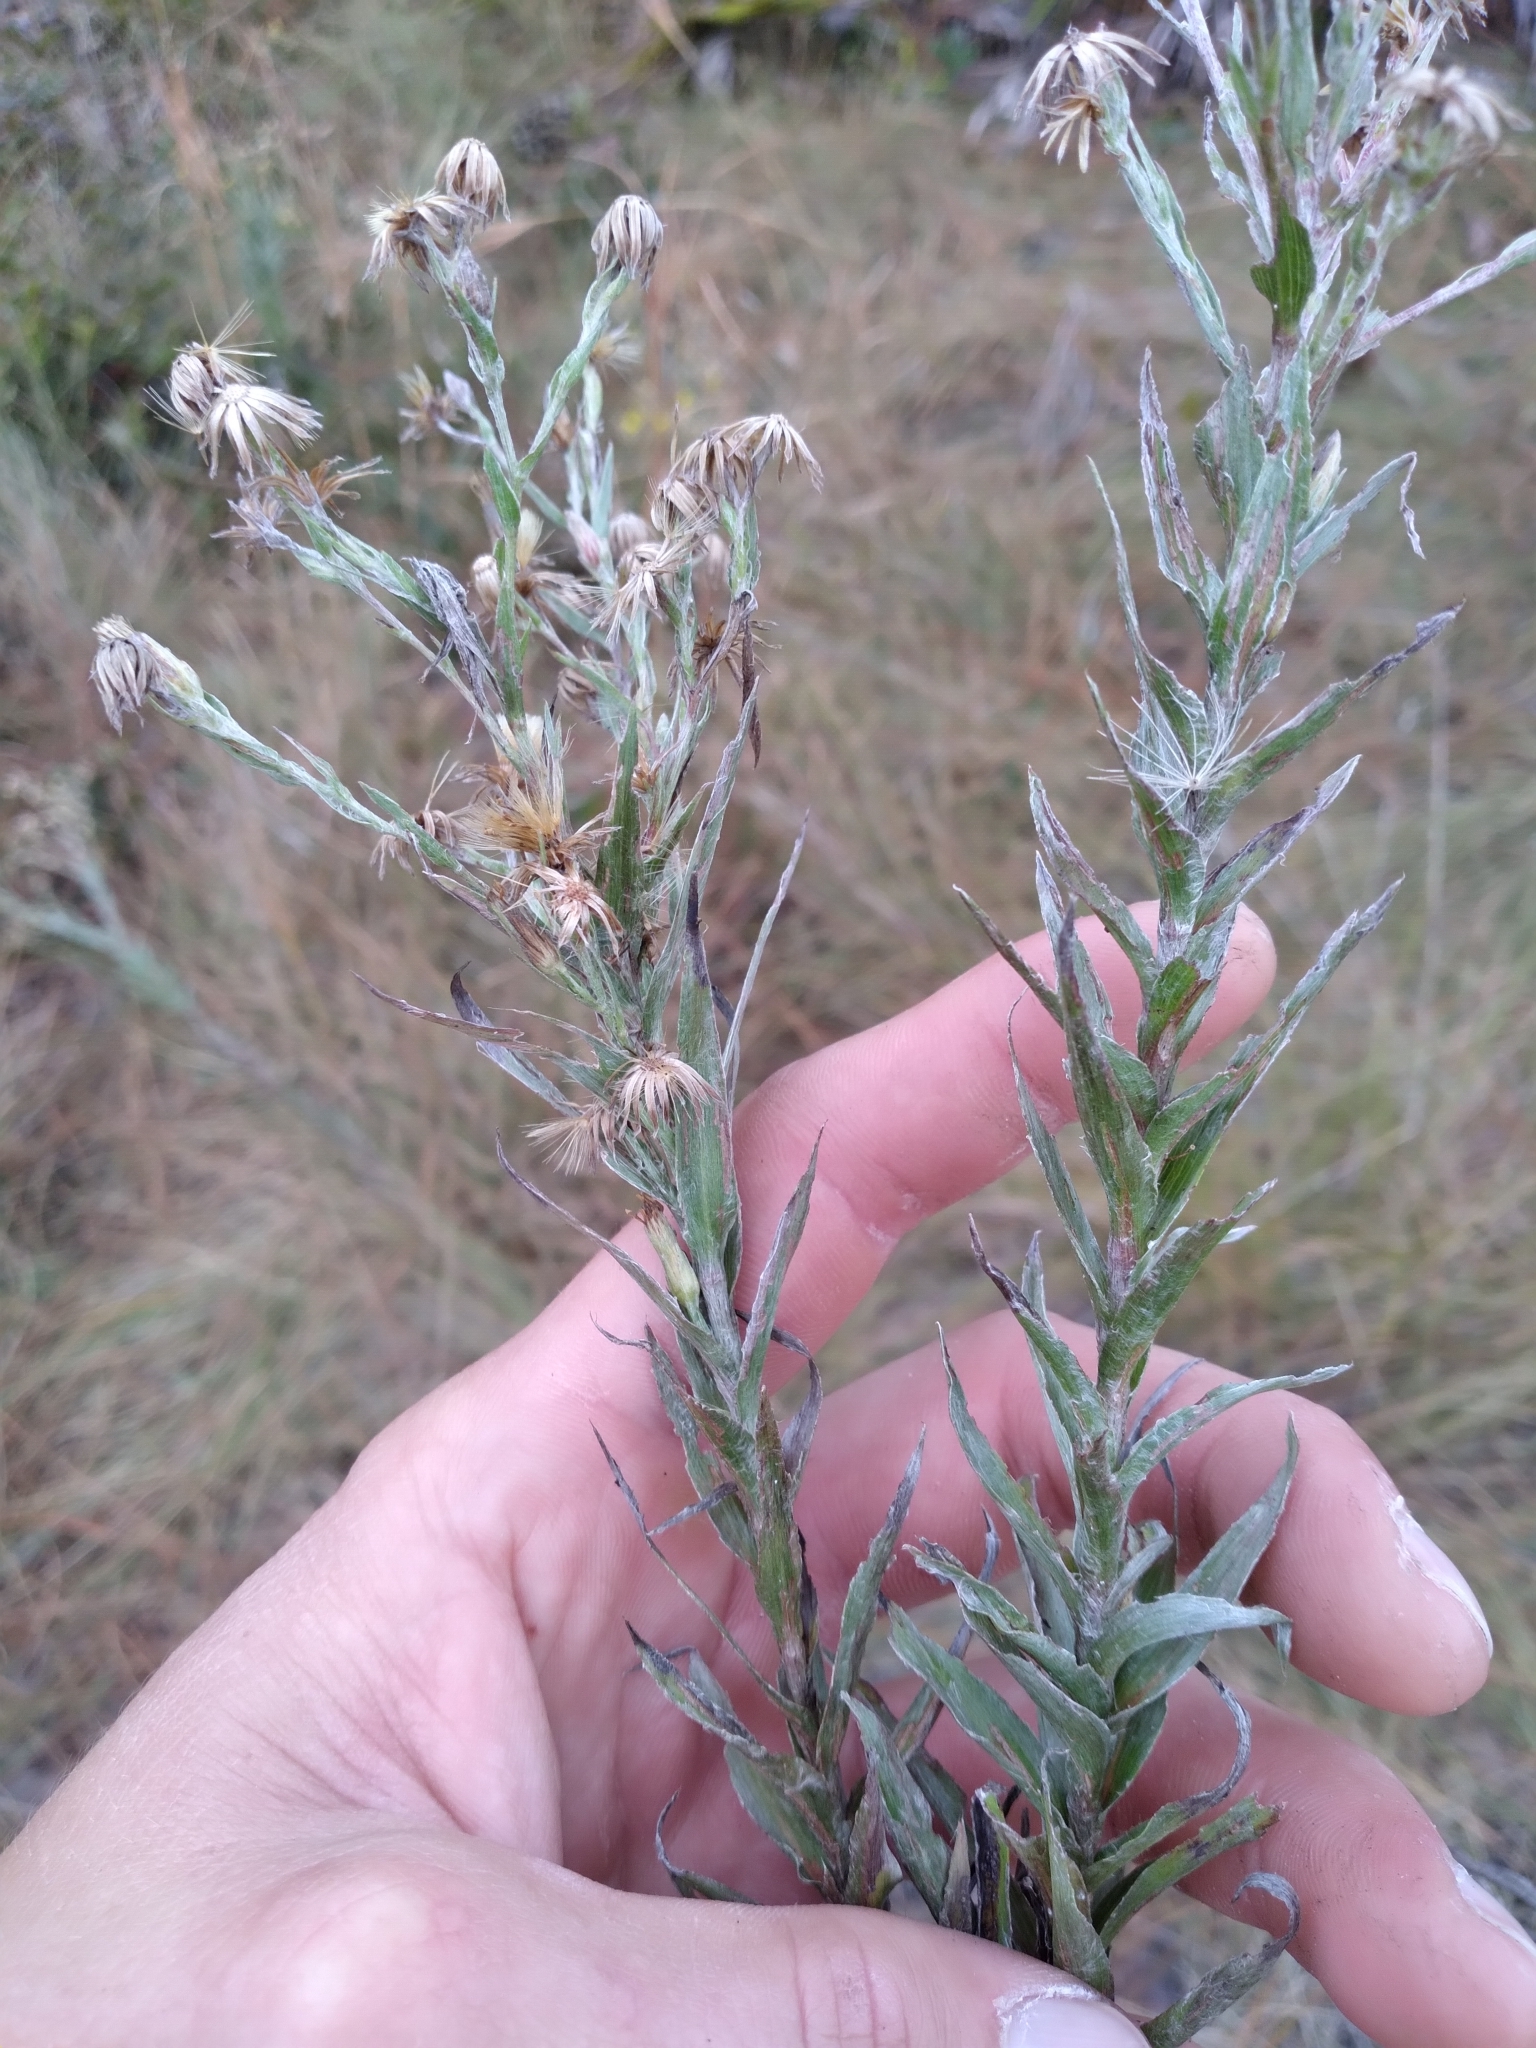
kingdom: Plantae
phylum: Tracheophyta
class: Magnoliopsida
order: Asterales
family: Asteraceae
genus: Pityopsis
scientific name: Pityopsis aequilifolia
